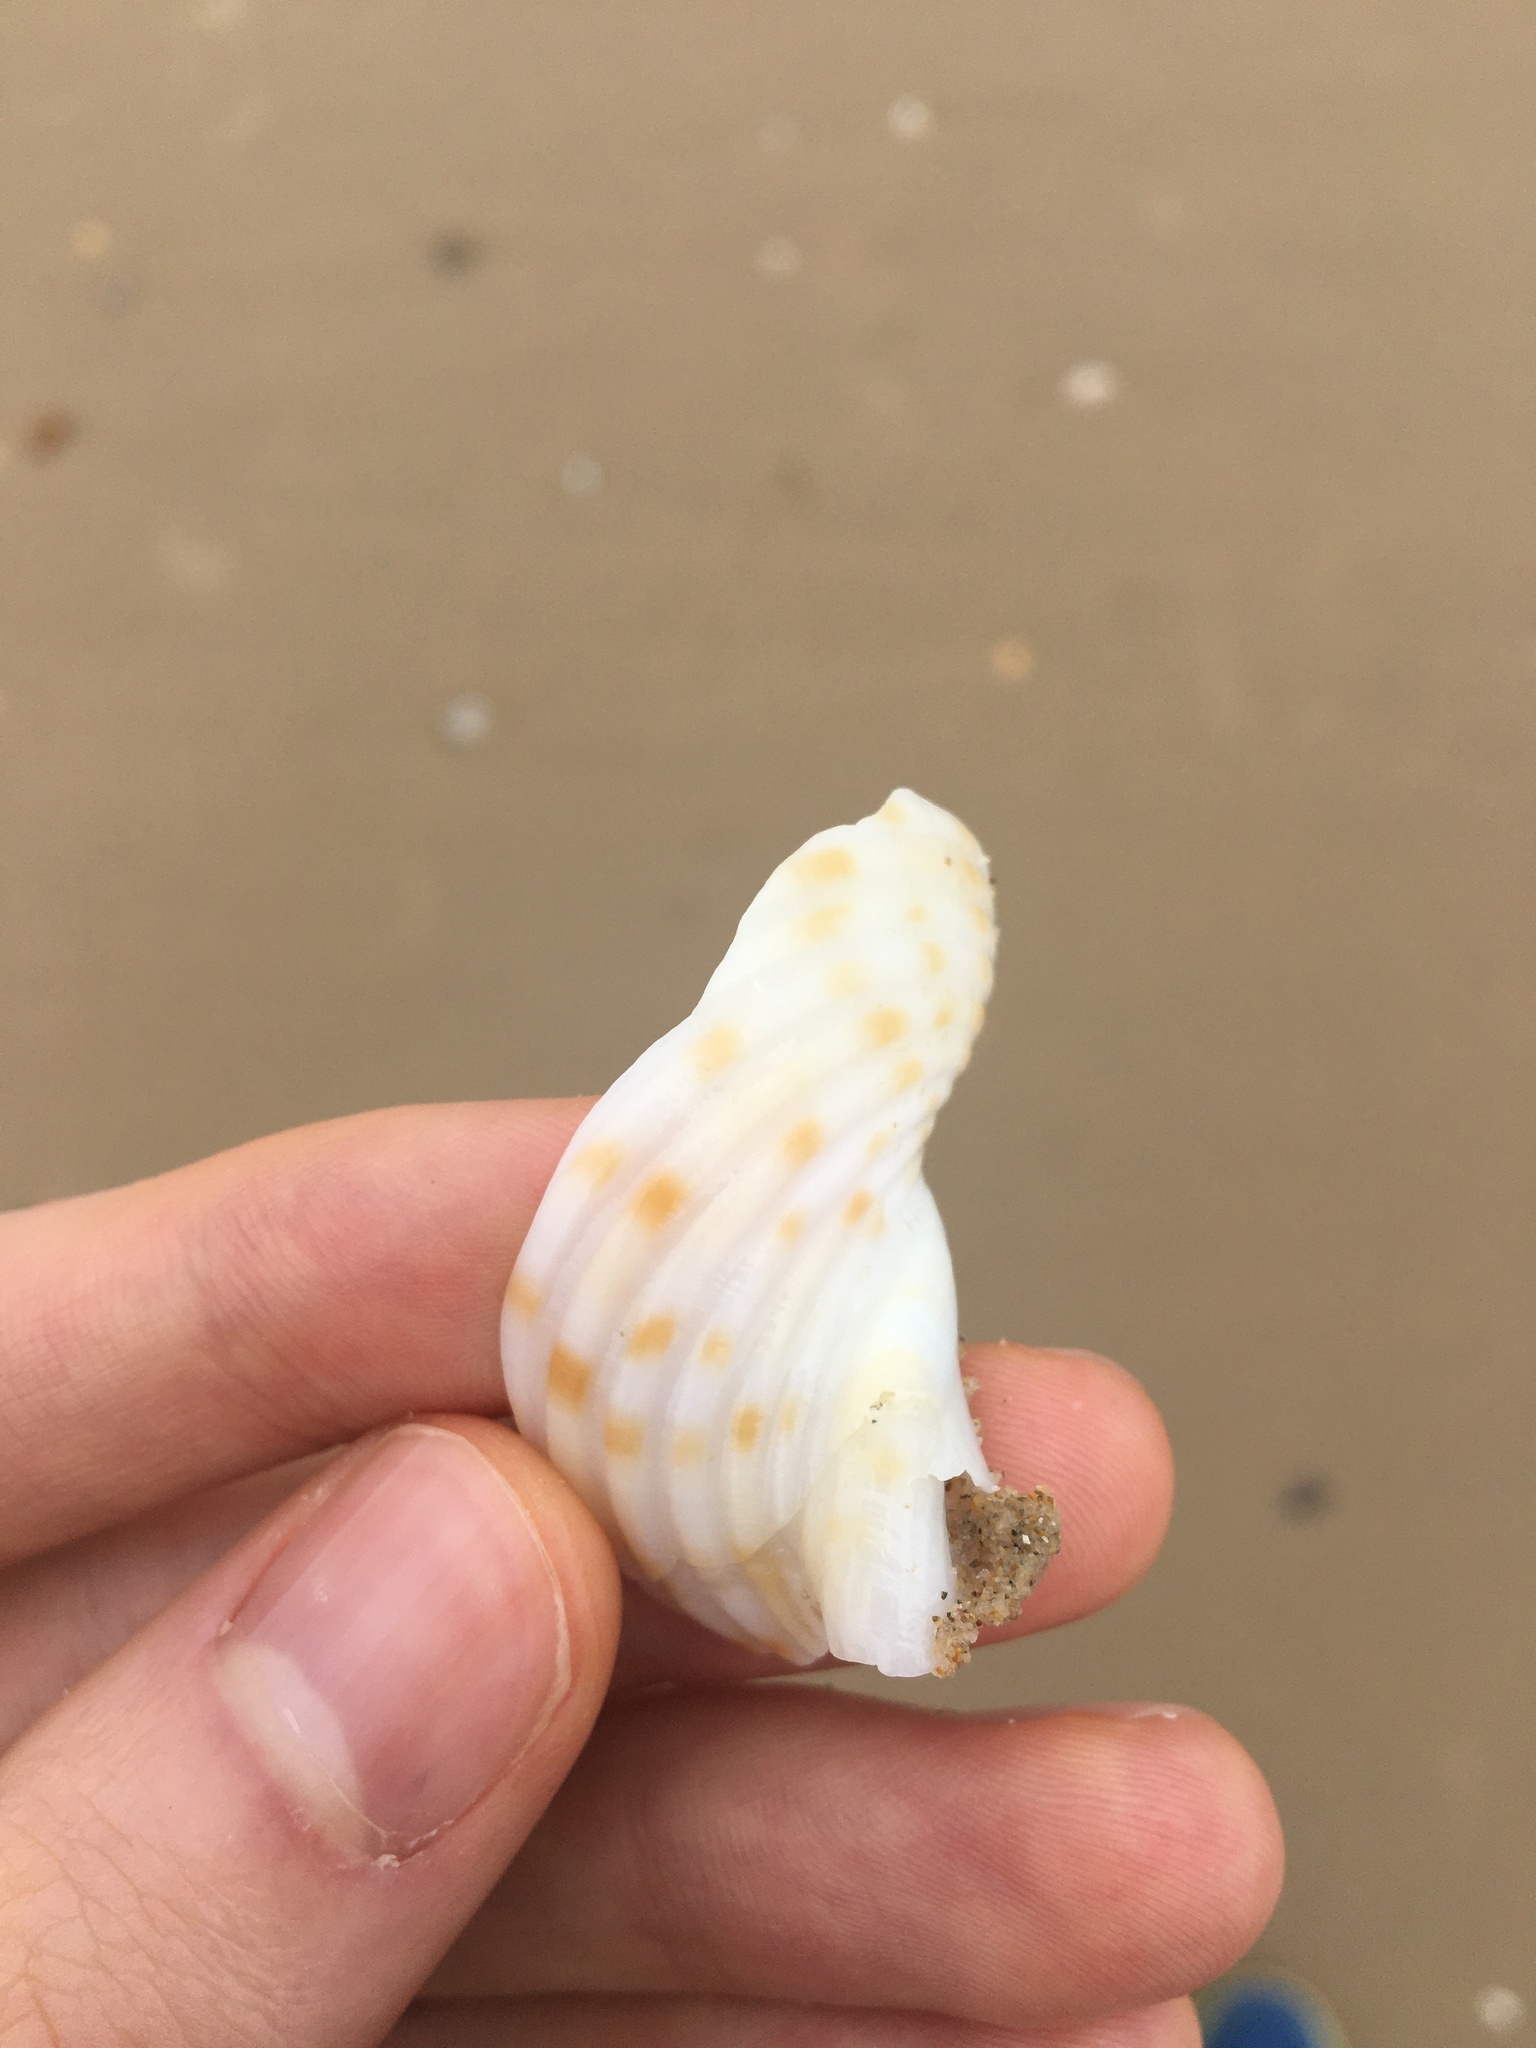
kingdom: Animalia
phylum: Mollusca
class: Gastropoda
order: Littorinimorpha
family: Tonnidae
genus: Tonna
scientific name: Tonna tankervillii
